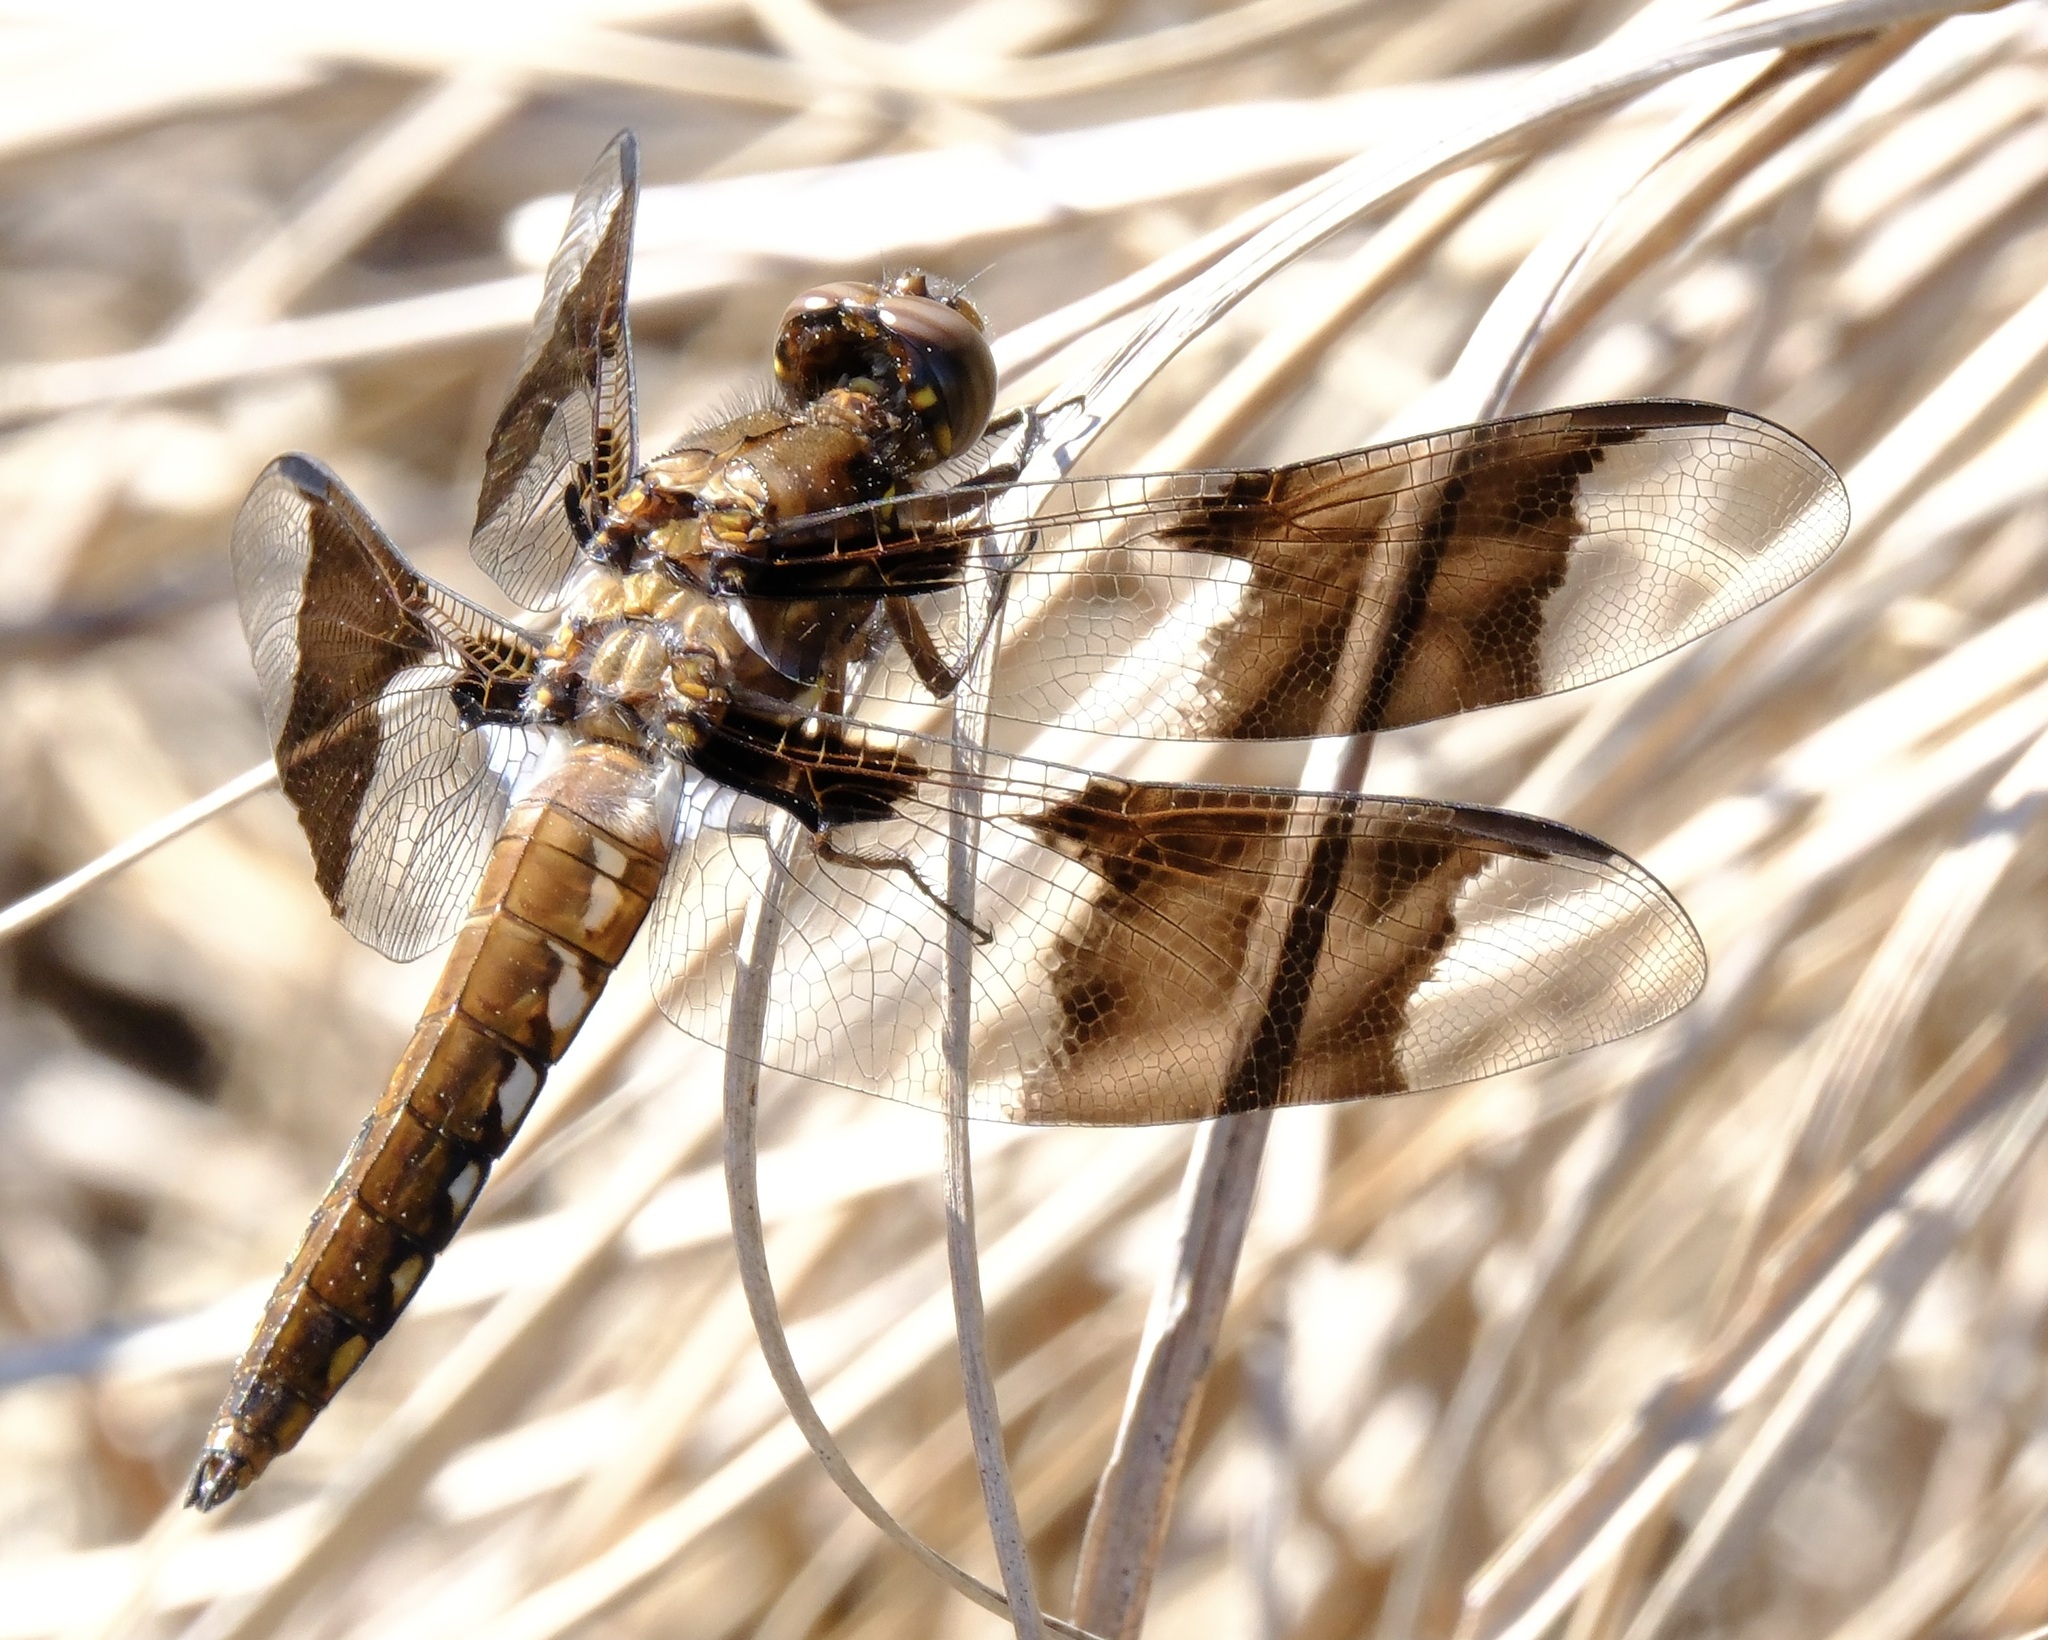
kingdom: Animalia
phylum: Arthropoda
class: Insecta
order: Odonata
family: Libellulidae
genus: Plathemis
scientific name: Plathemis lydia
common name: Common whitetail
